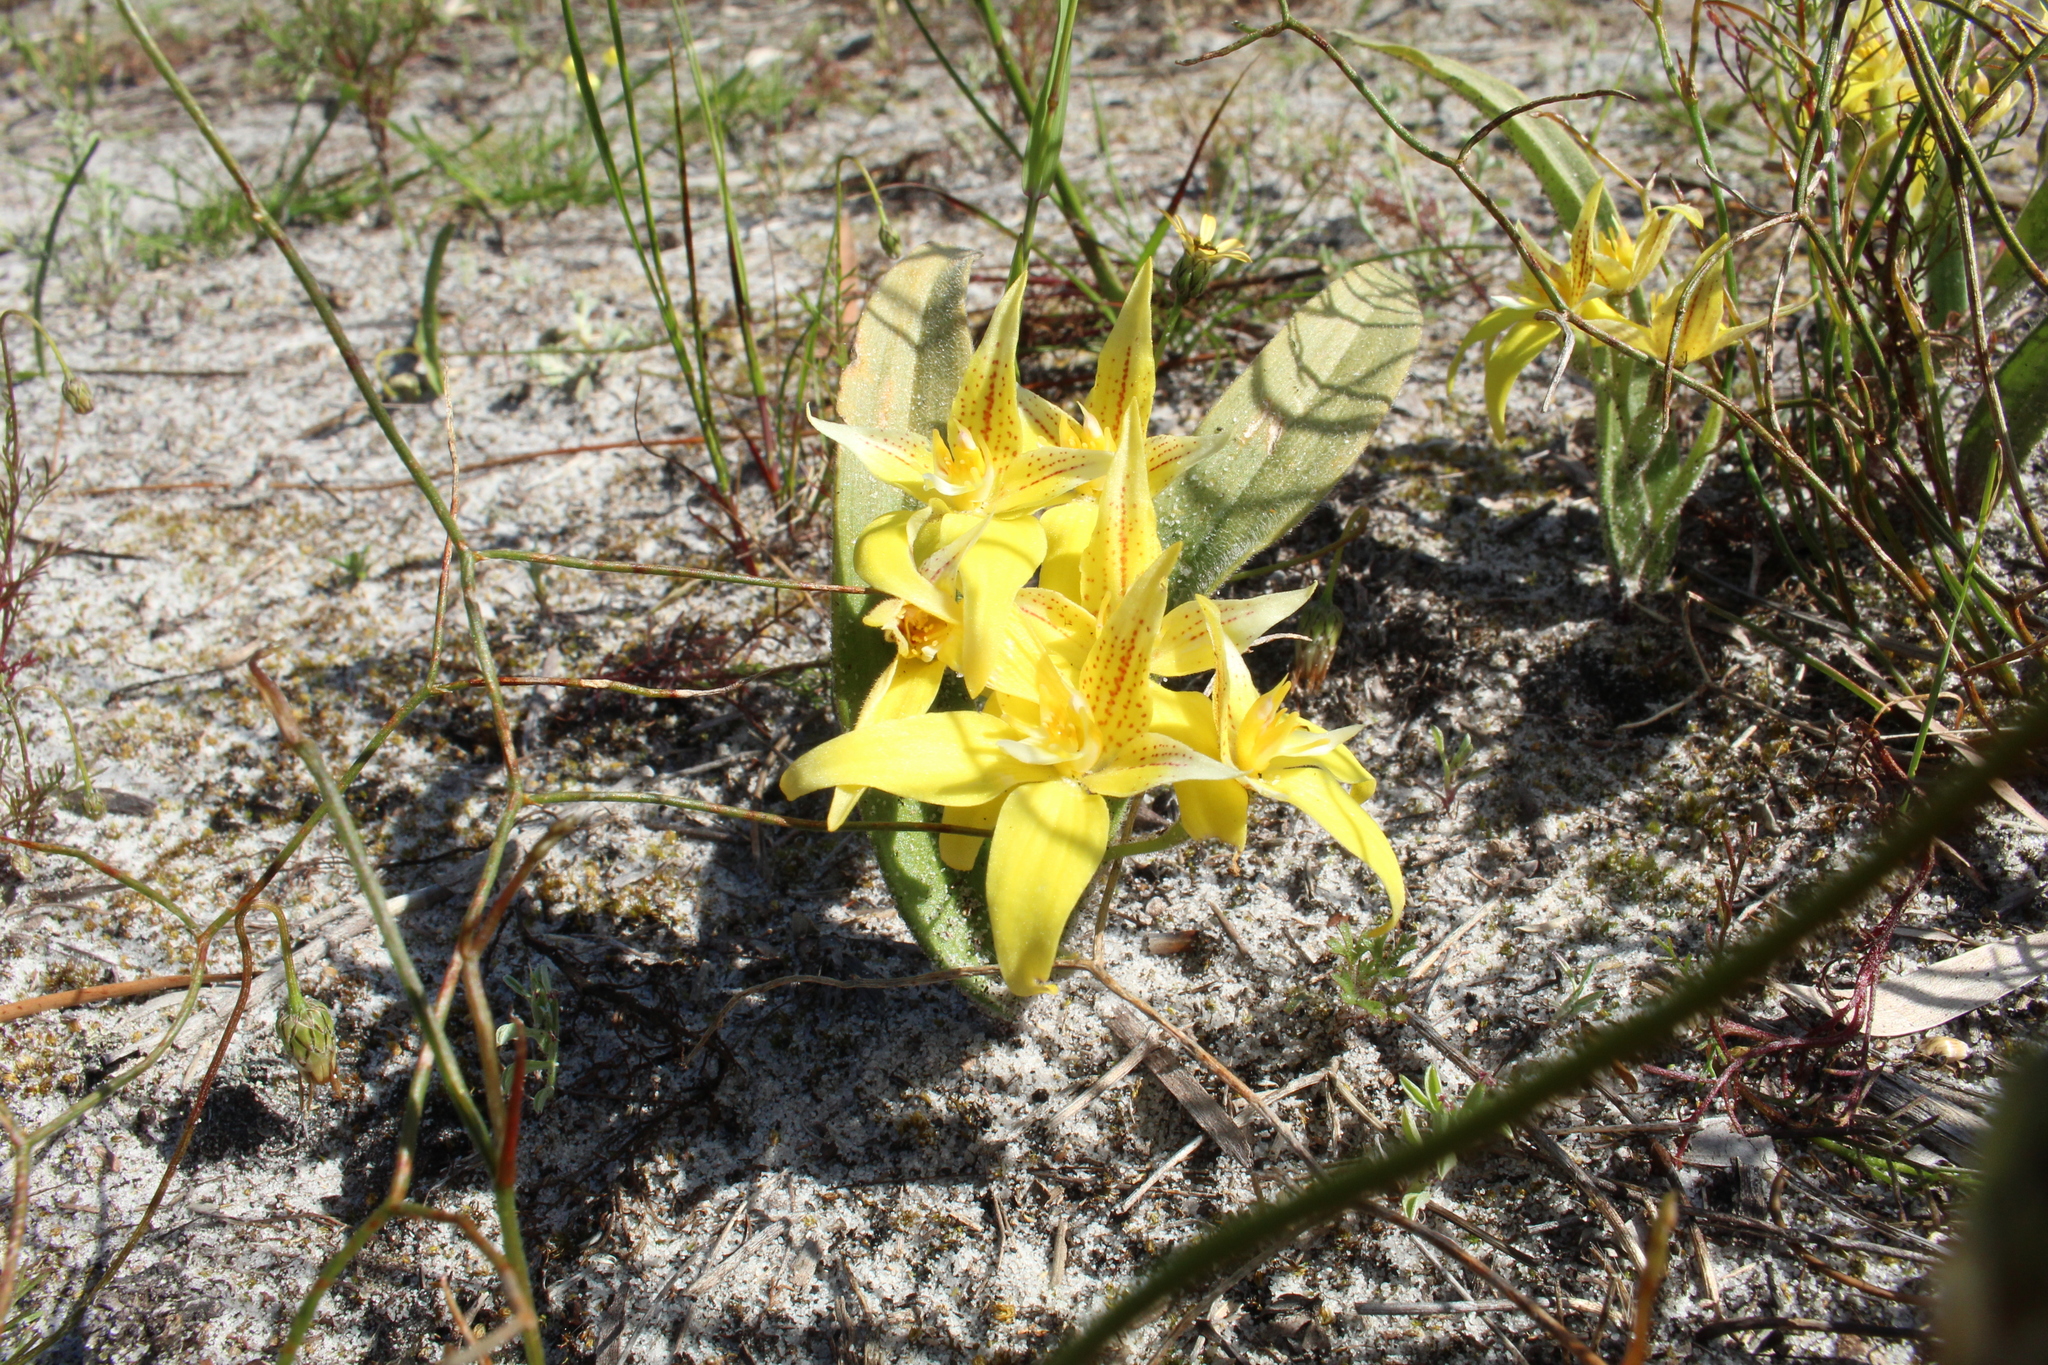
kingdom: Plantae
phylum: Tracheophyta
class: Liliopsida
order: Asparagales
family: Orchidaceae
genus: Caladenia
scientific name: Caladenia flava
